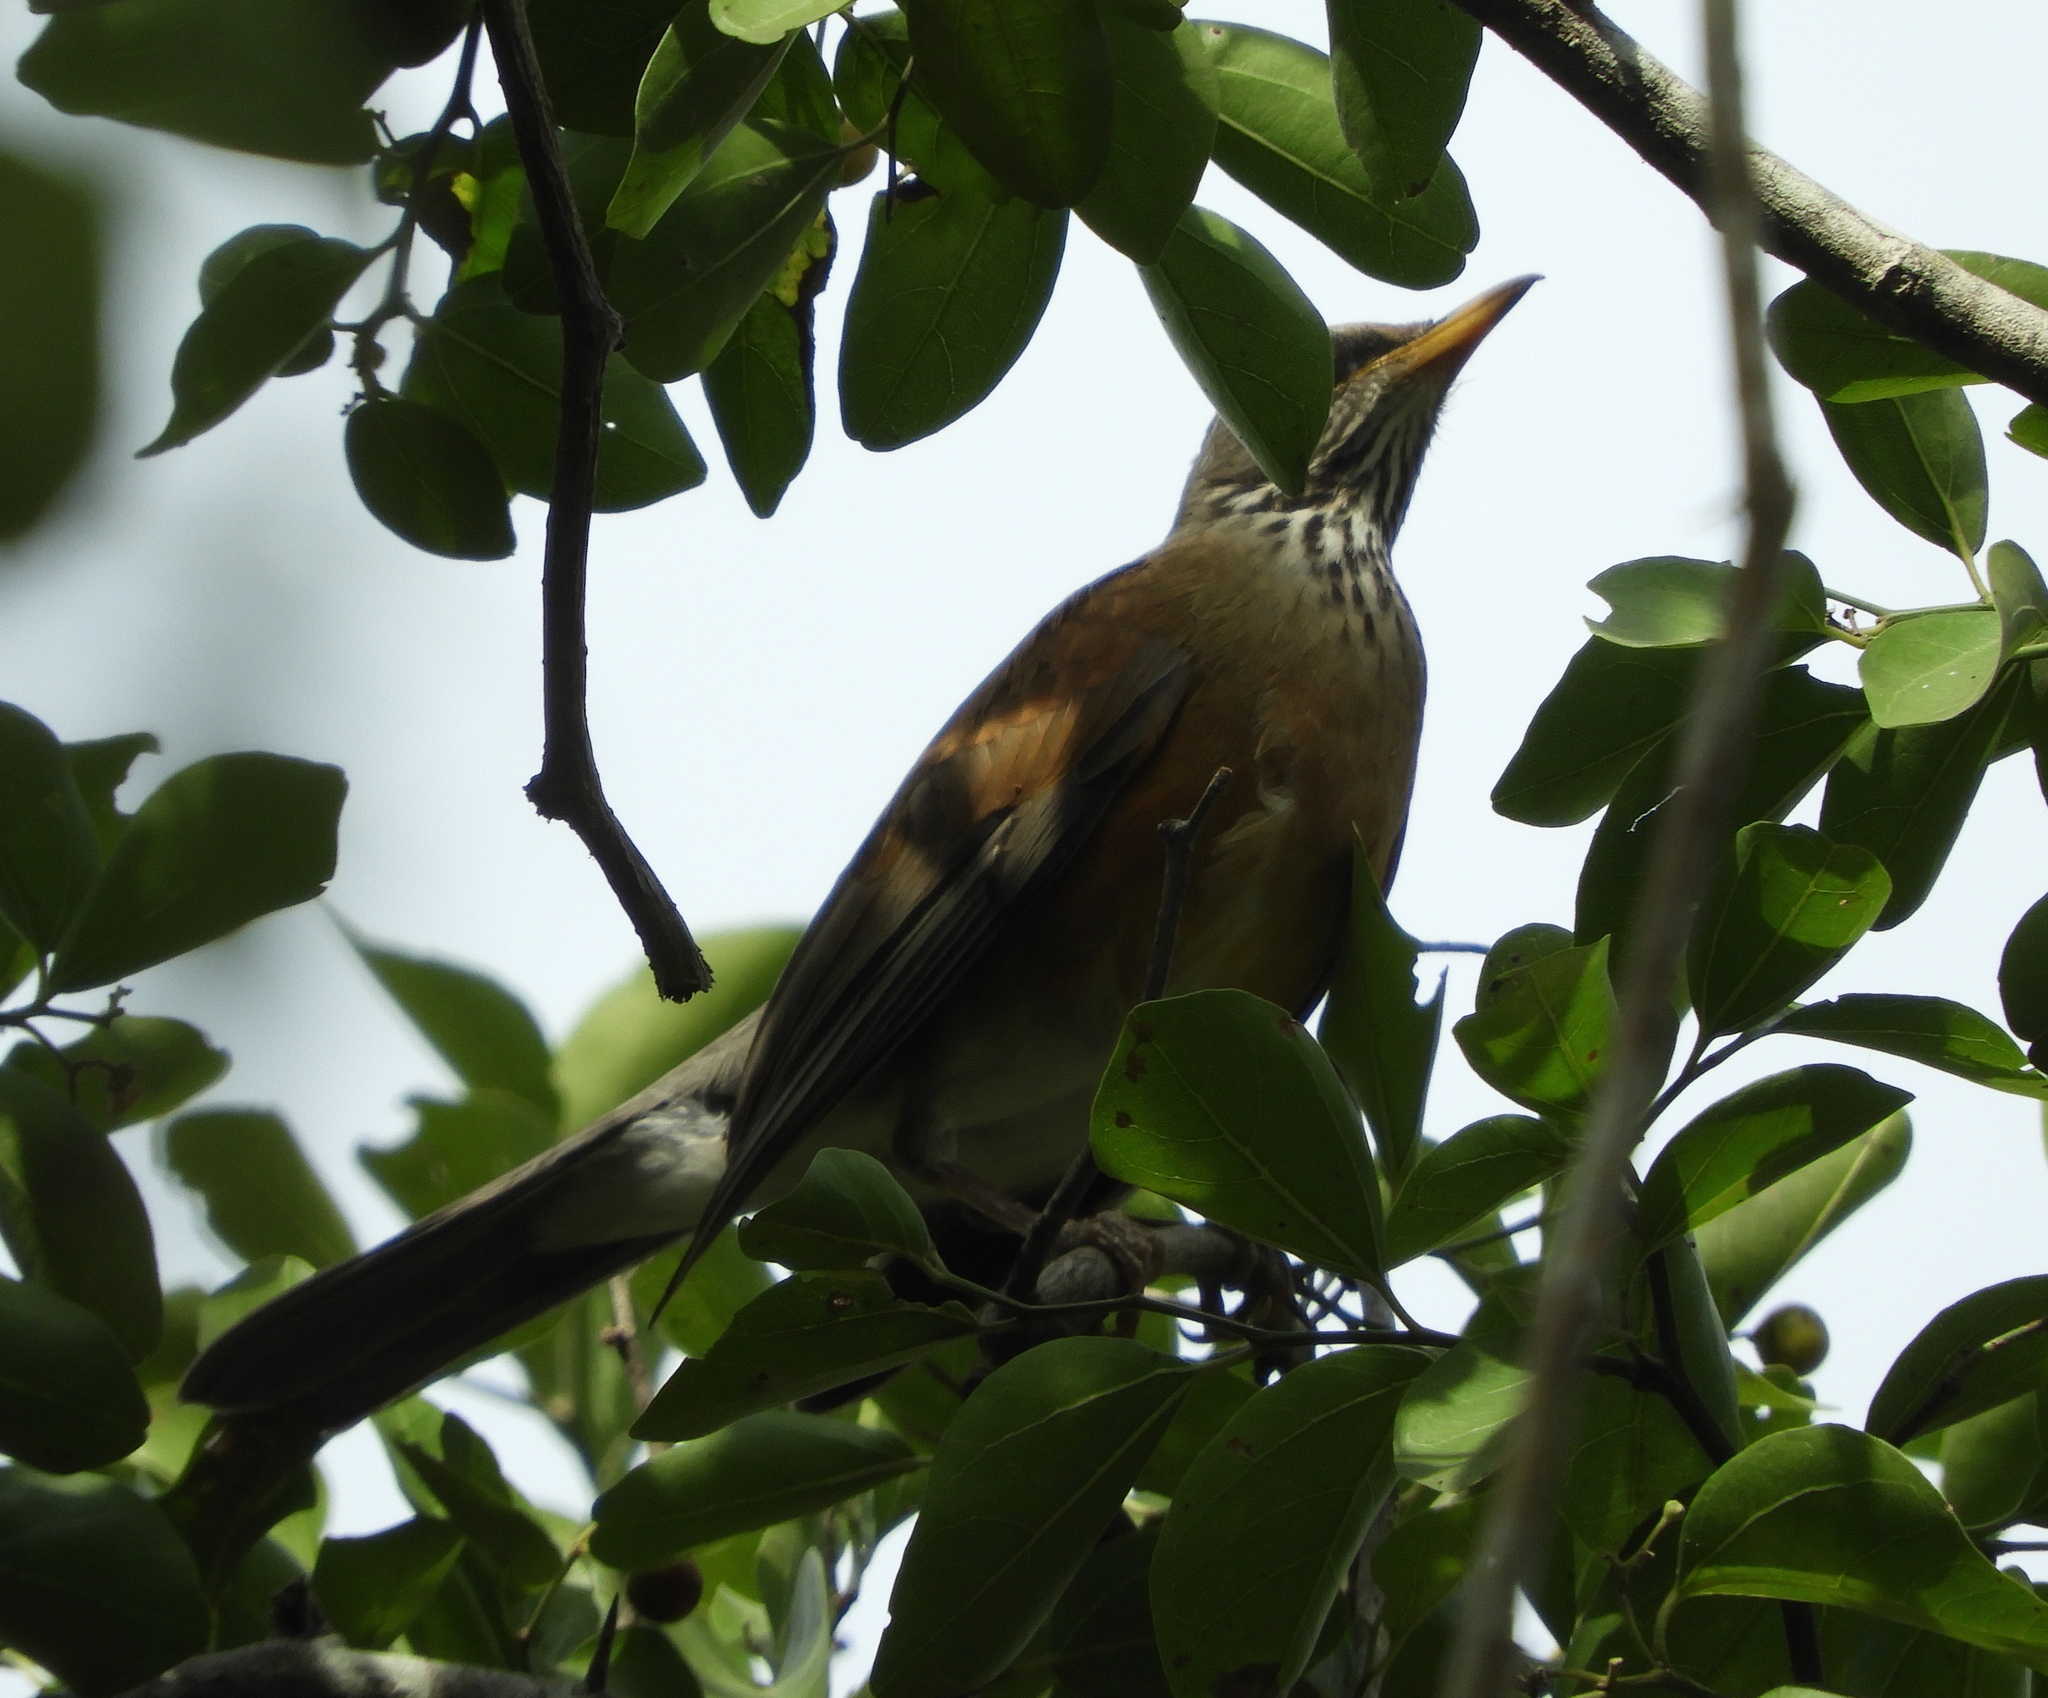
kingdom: Animalia
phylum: Chordata
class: Aves
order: Passeriformes
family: Turdidae
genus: Turdus
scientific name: Turdus rufopalliatus
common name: Rufous-backed robin
